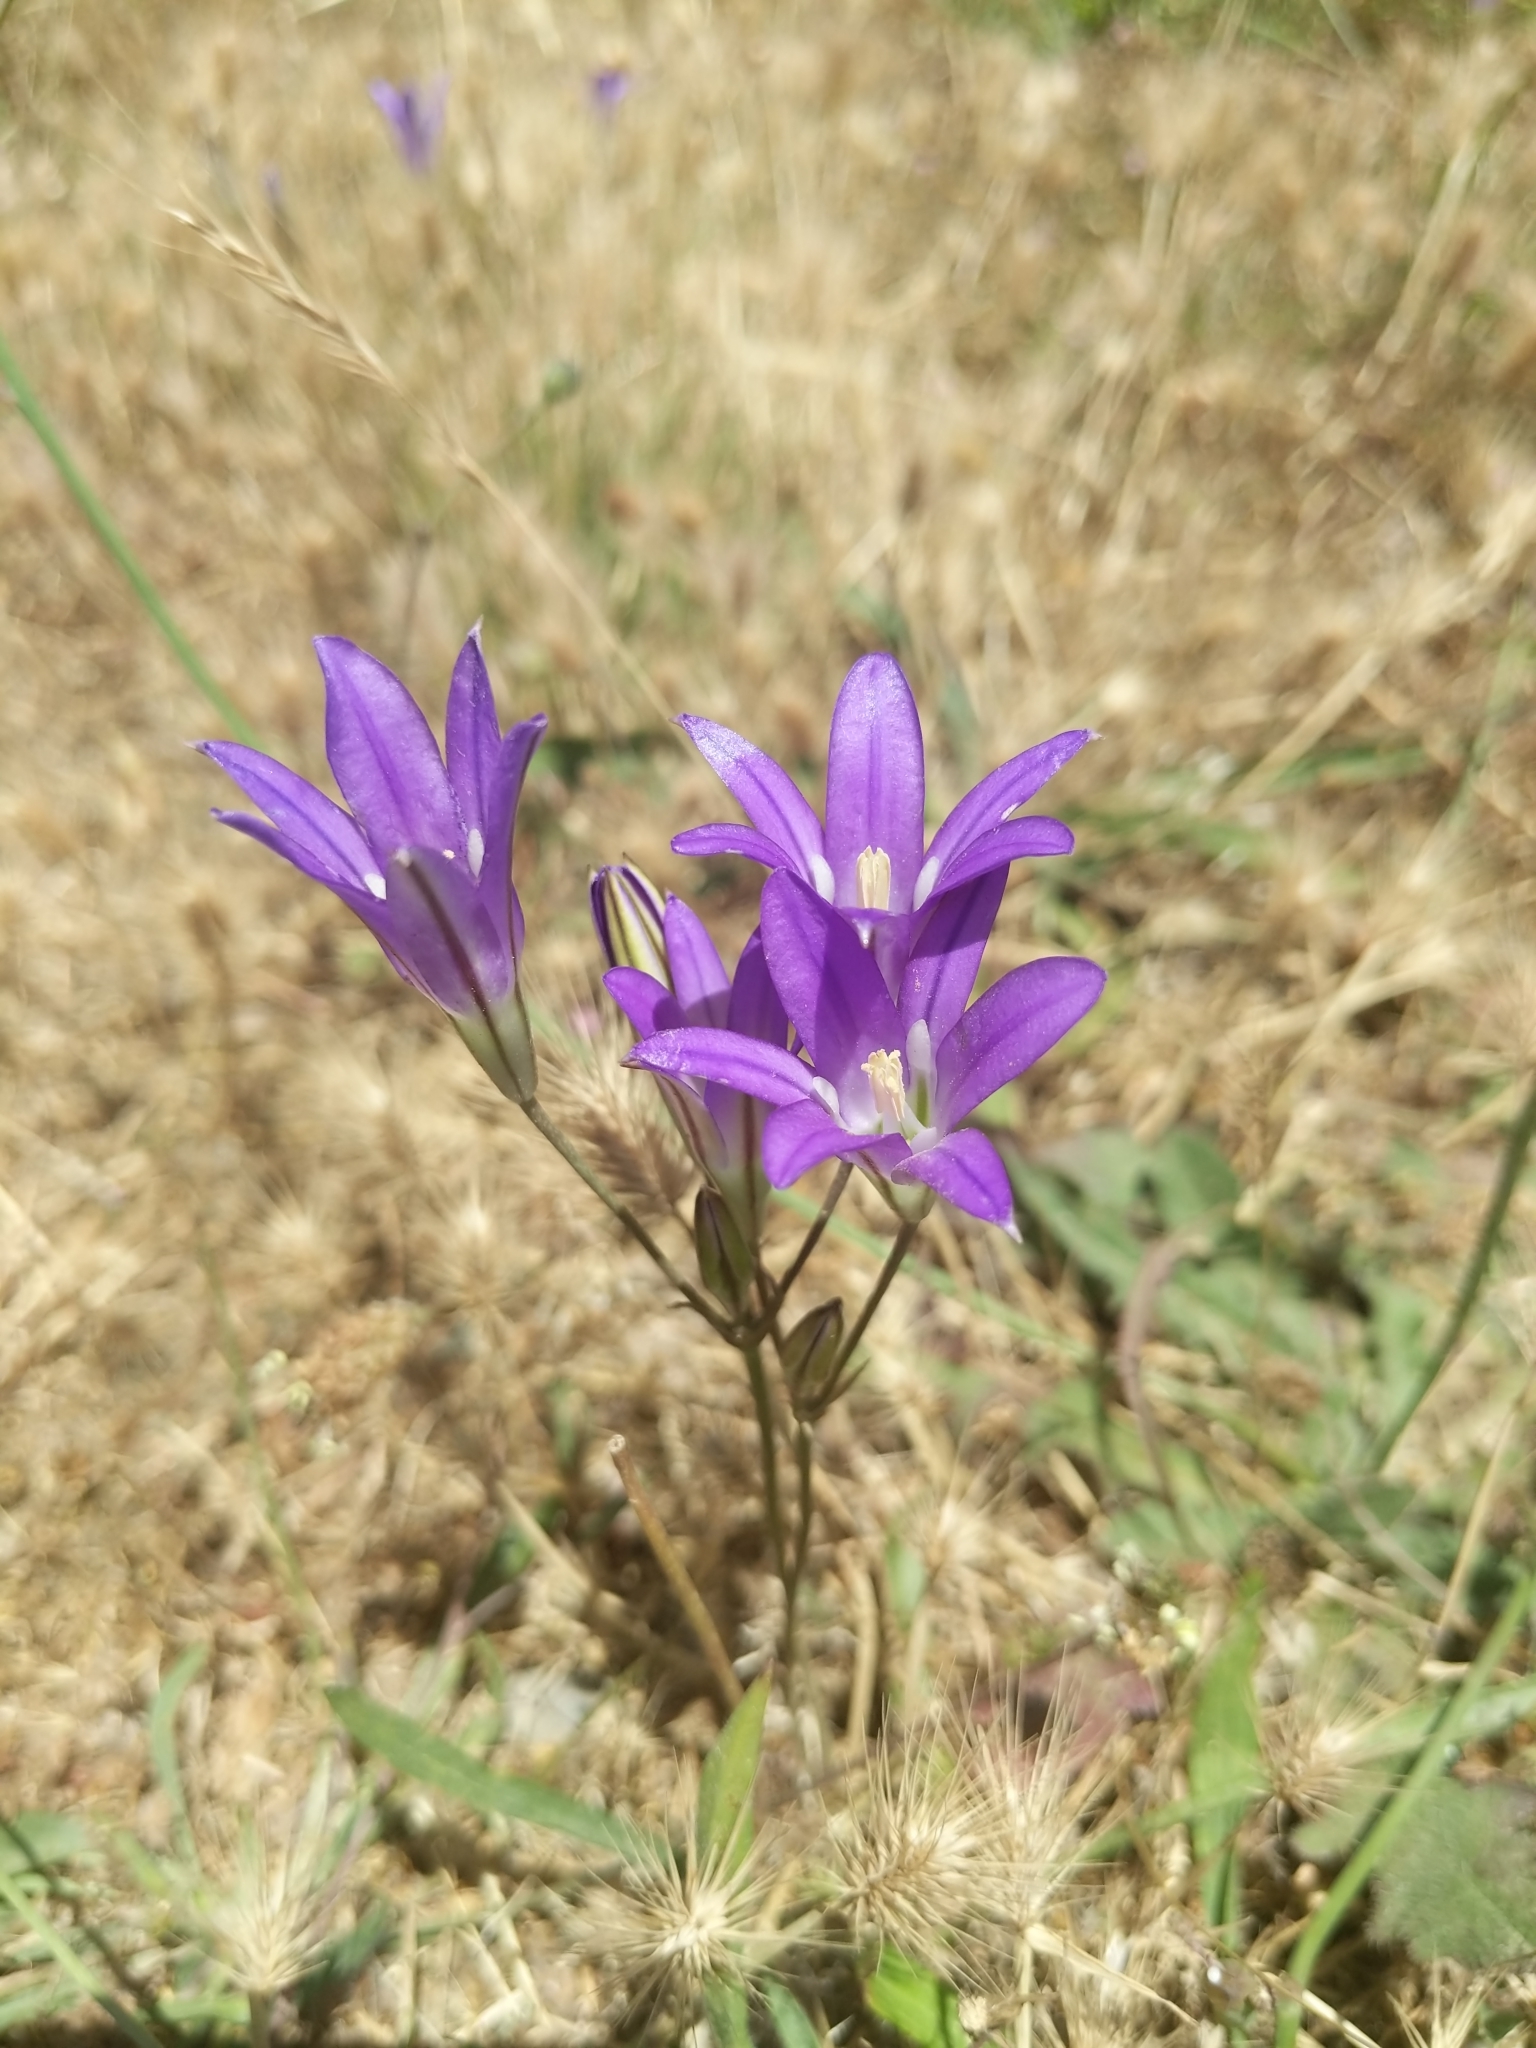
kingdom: Plantae
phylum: Tracheophyta
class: Liliopsida
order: Asparagales
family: Asparagaceae
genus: Brodiaea
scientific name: Brodiaea elegans
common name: Elegant cluster-lily
